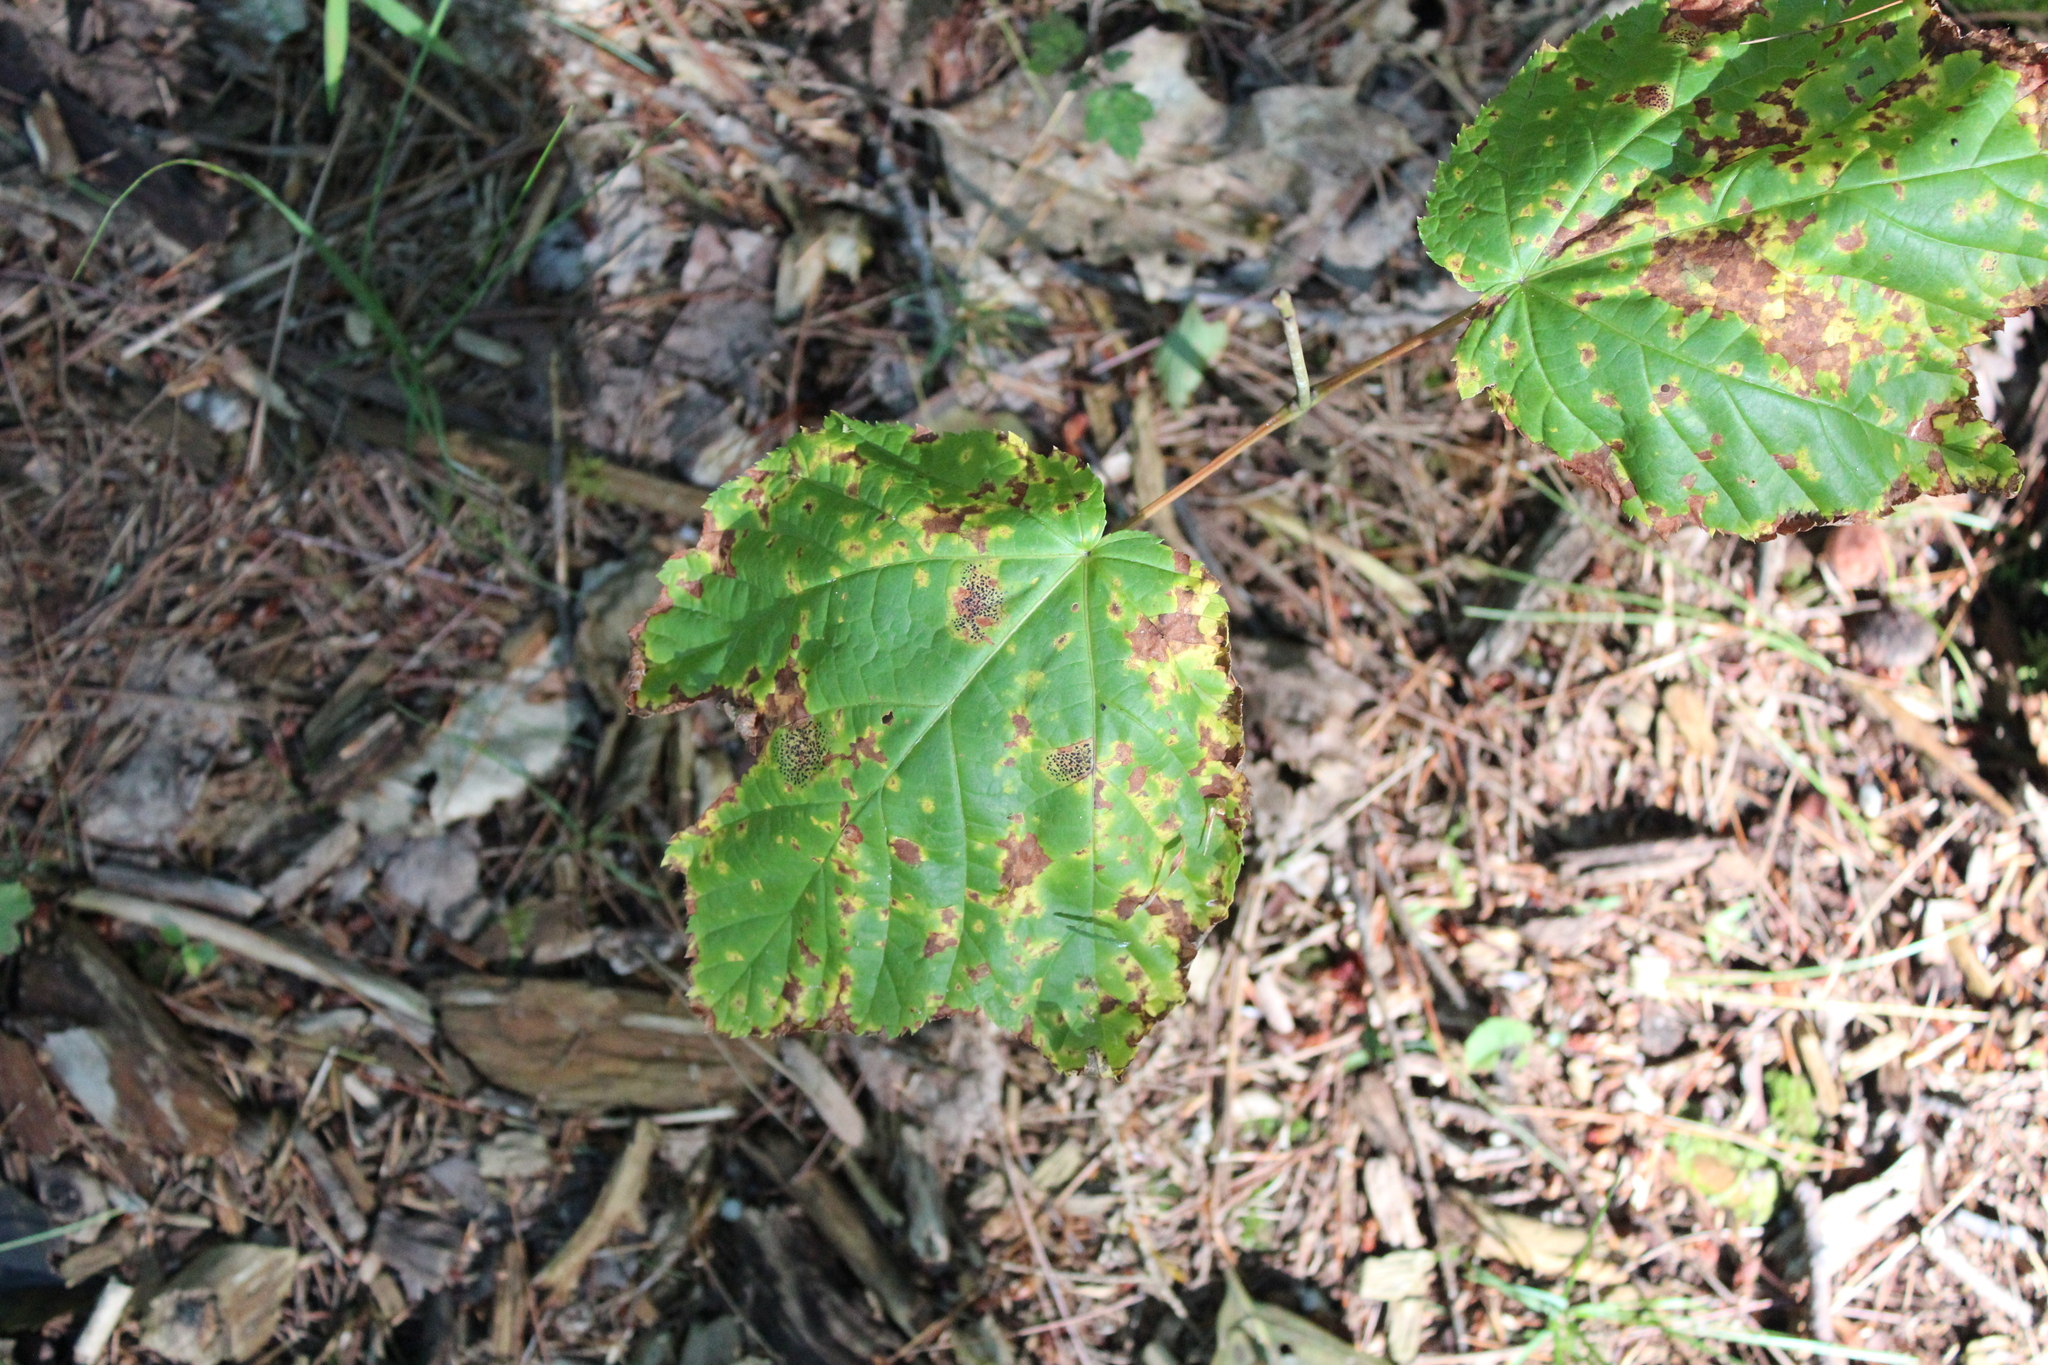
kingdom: Plantae
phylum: Tracheophyta
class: Magnoliopsida
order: Sapindales
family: Sapindaceae
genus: Acer
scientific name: Acer pensylvanicum
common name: Moosewood
